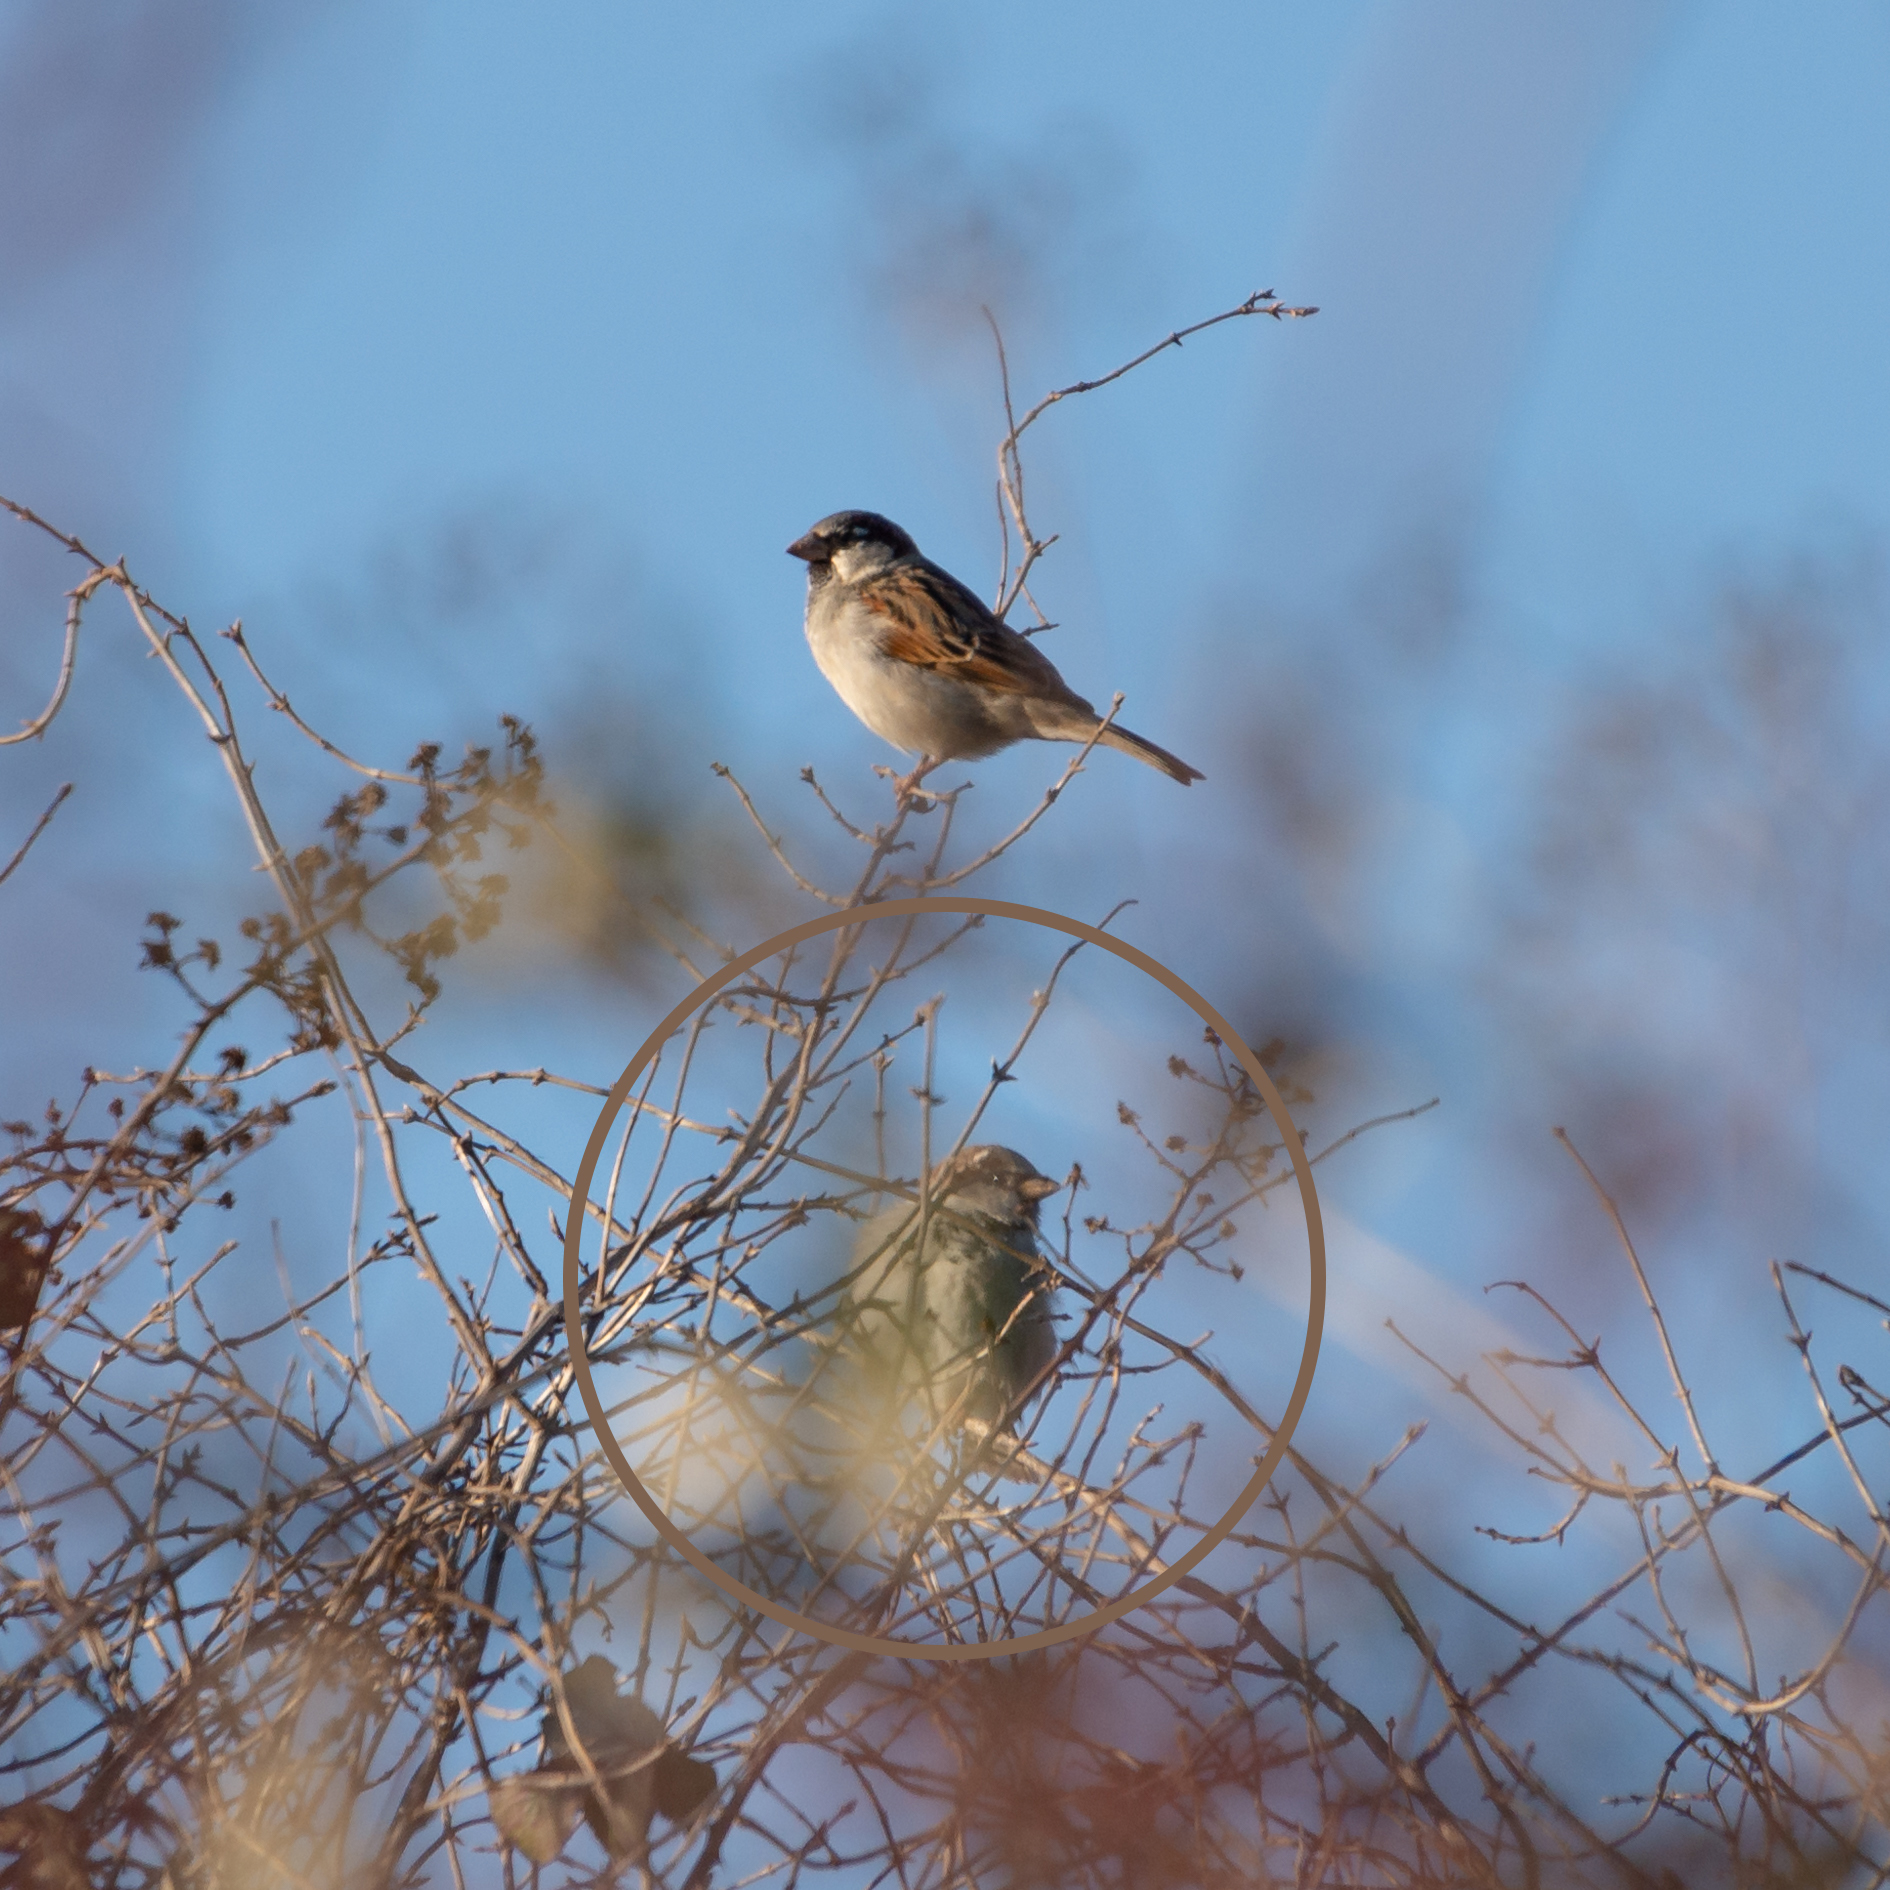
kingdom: Animalia
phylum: Chordata
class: Aves
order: Passeriformes
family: Passeridae
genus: Passer
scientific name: Passer domesticus
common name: House sparrow
